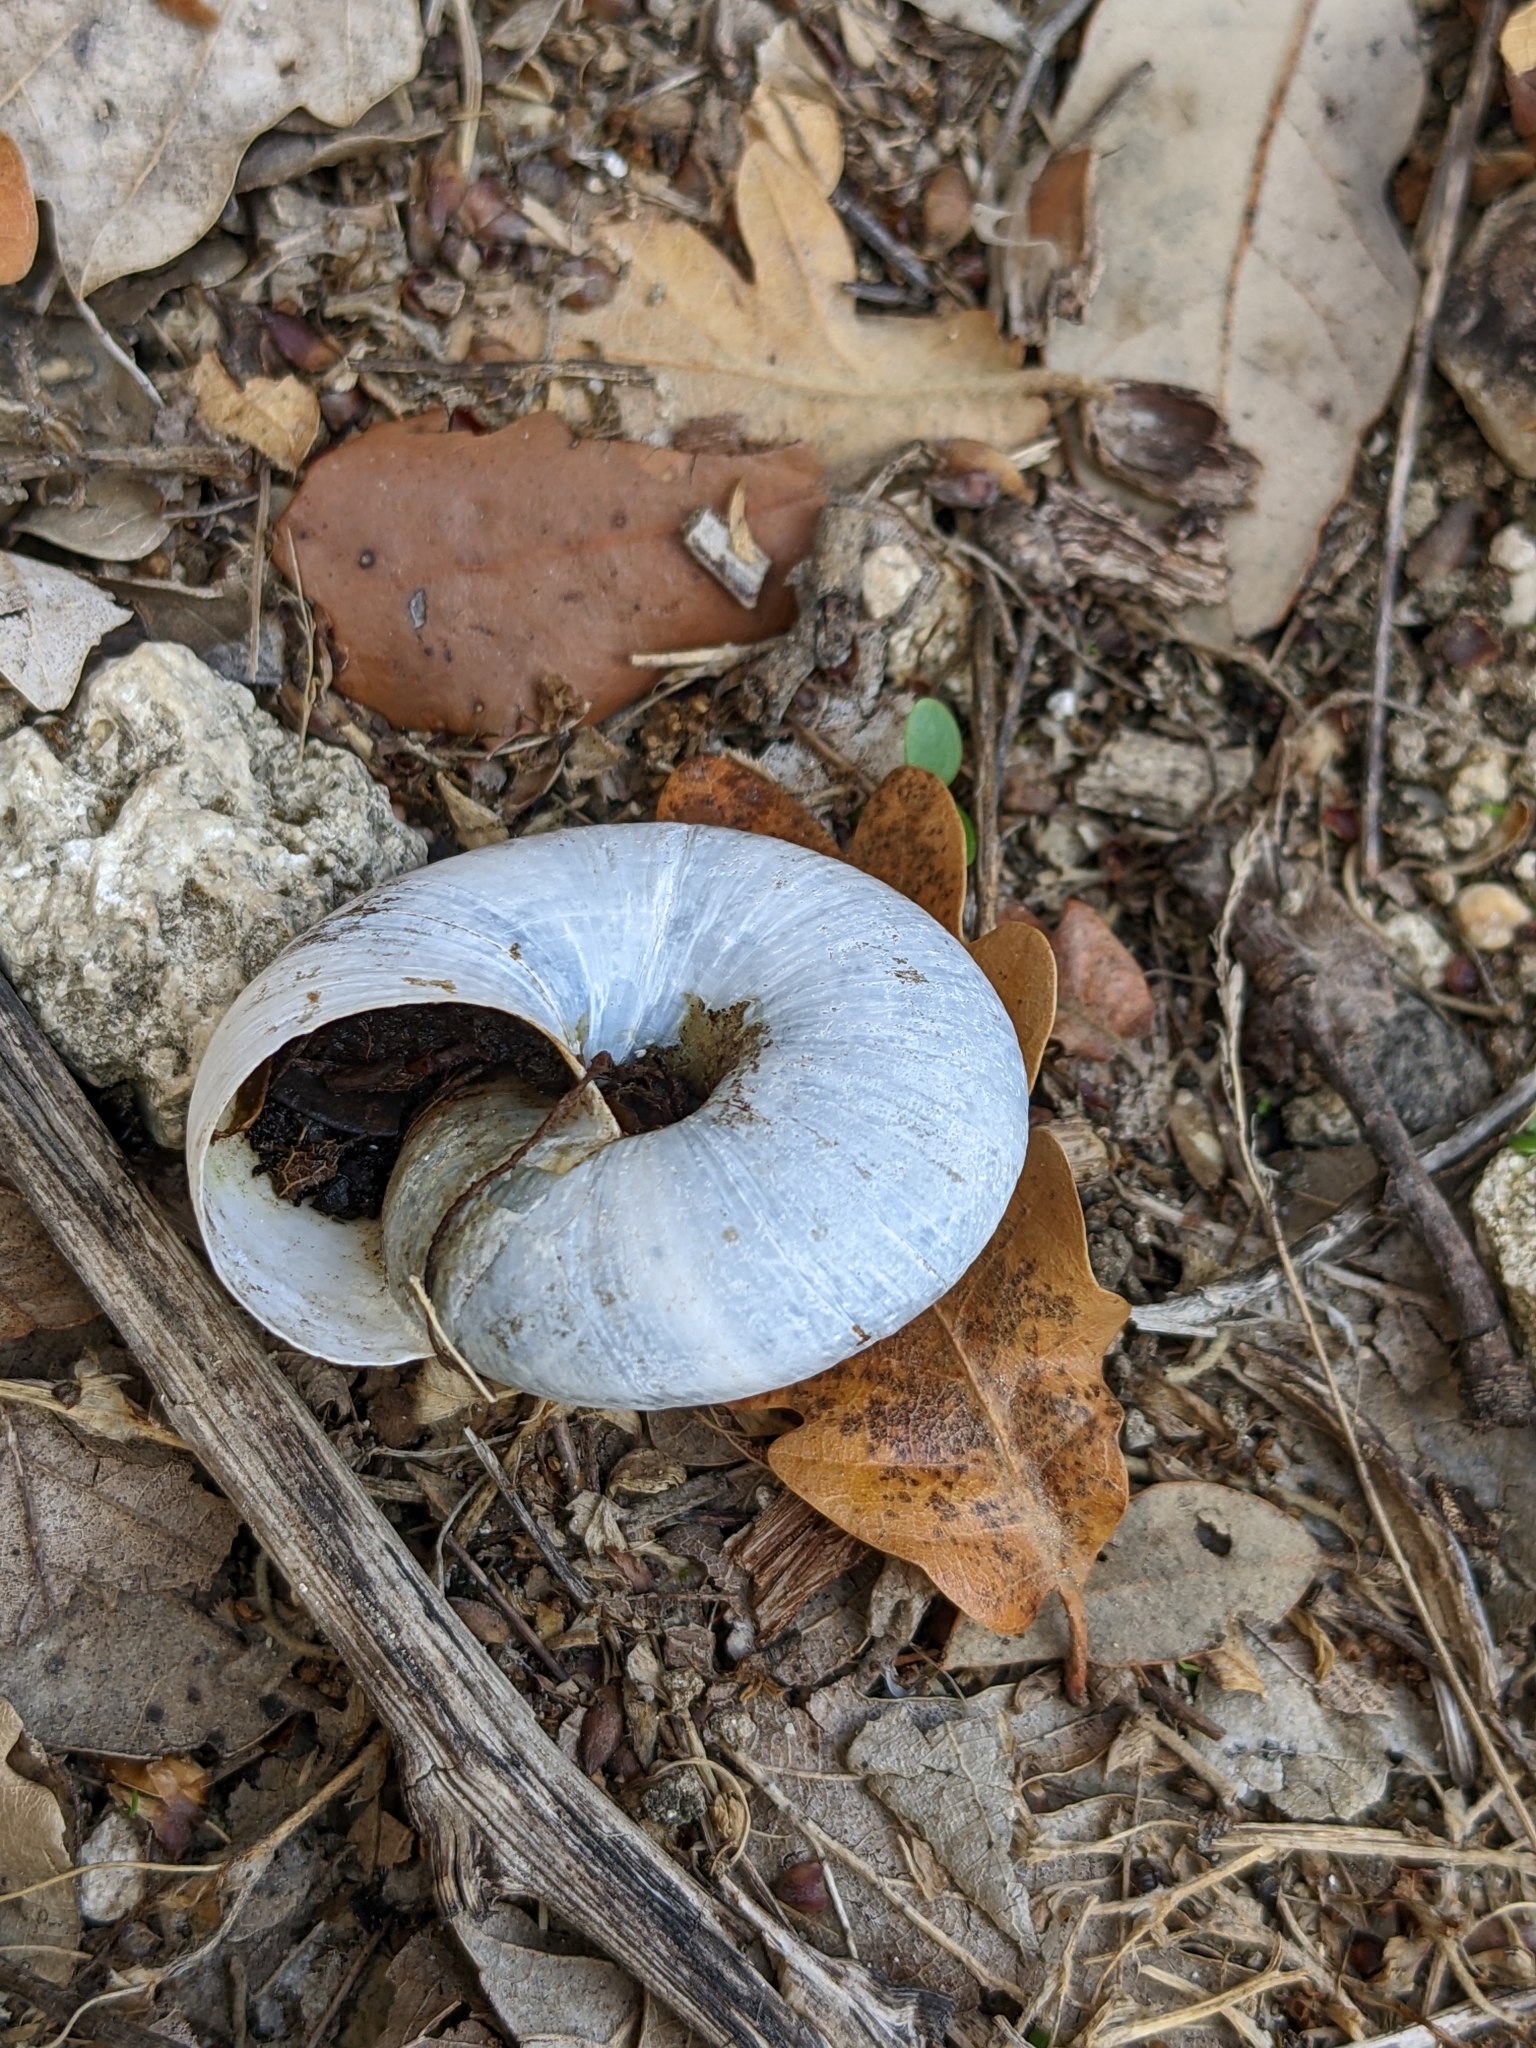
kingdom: Animalia
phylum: Mollusca
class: Gastropoda
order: Stylommatophora
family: Zonitidae
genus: Zonites
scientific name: Zonites algirus
